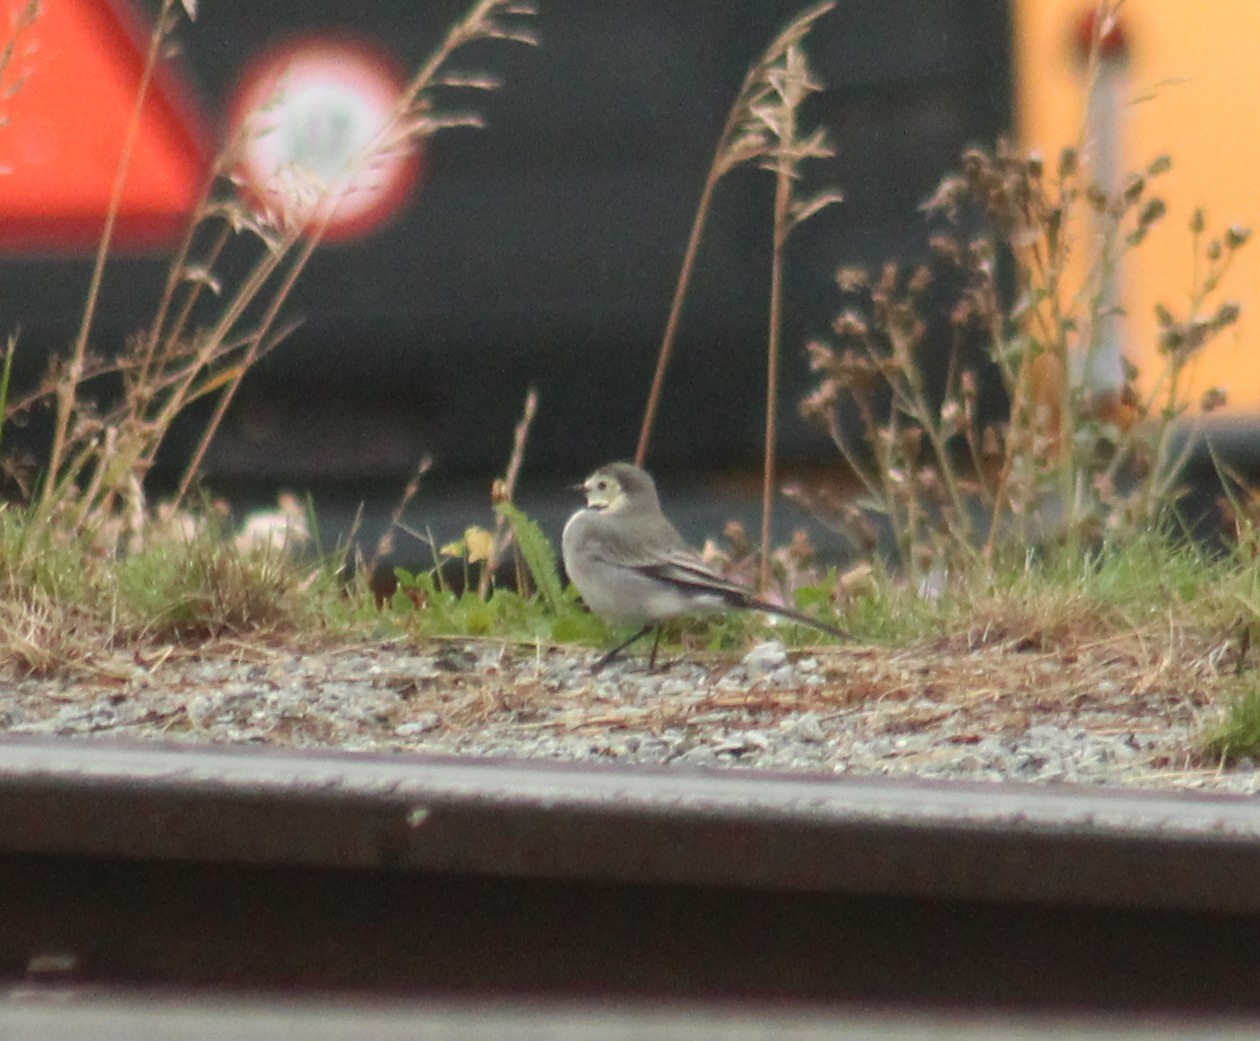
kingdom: Animalia
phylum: Chordata
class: Aves
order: Passeriformes
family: Motacillidae
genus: Motacilla
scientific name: Motacilla alba
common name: White wagtail
